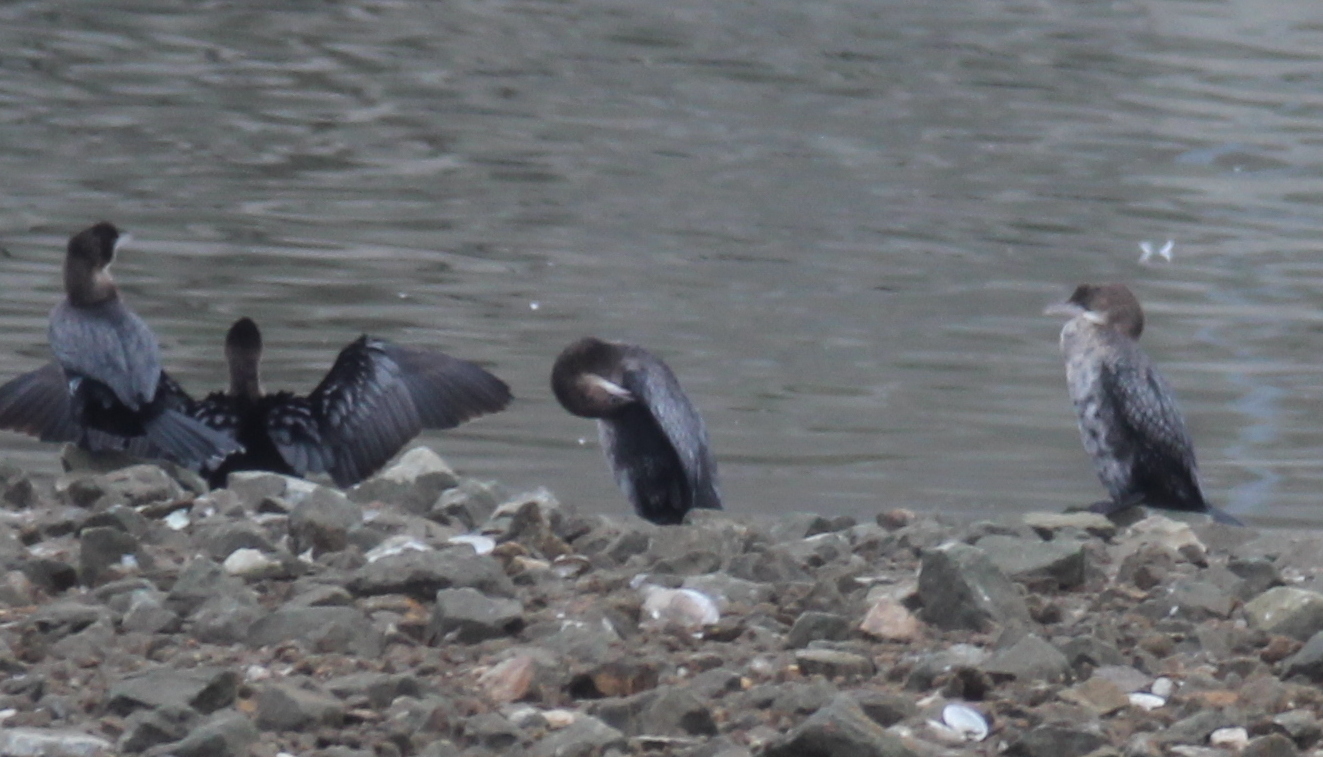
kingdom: Animalia
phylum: Chordata
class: Aves
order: Suliformes
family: Phalacrocoracidae
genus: Microcarbo
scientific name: Microcarbo pygmaeus
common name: Pygmy cormorant
